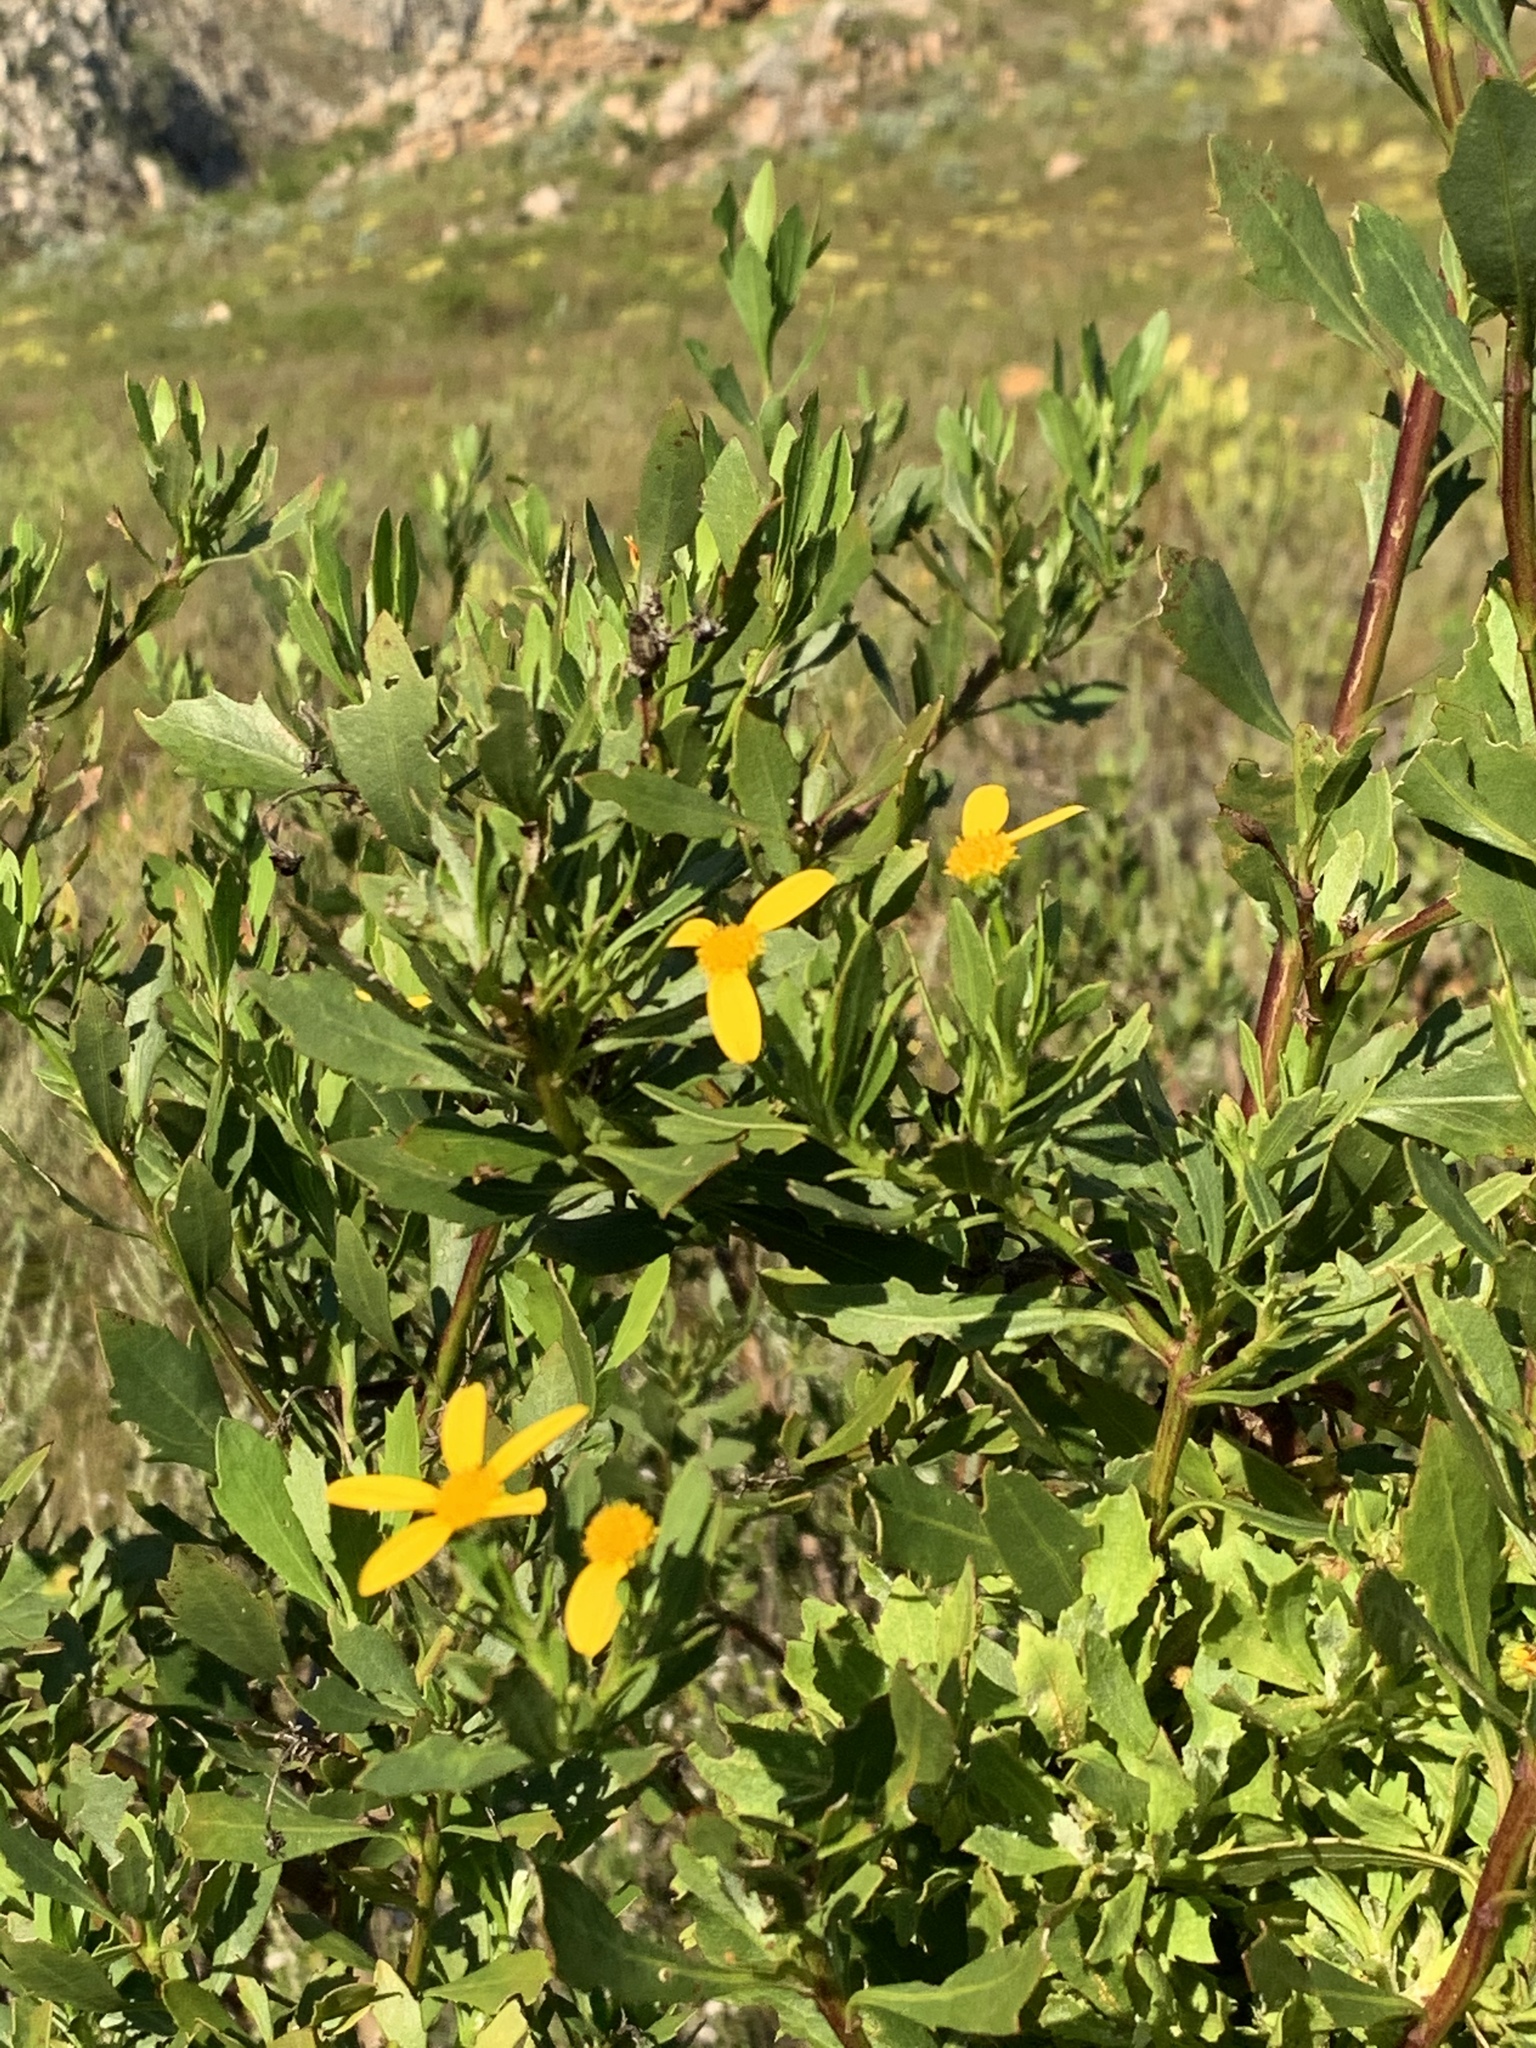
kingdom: Plantae
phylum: Tracheophyta
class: Magnoliopsida
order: Asterales
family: Asteraceae
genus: Osteospermum
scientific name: Osteospermum moniliferum
